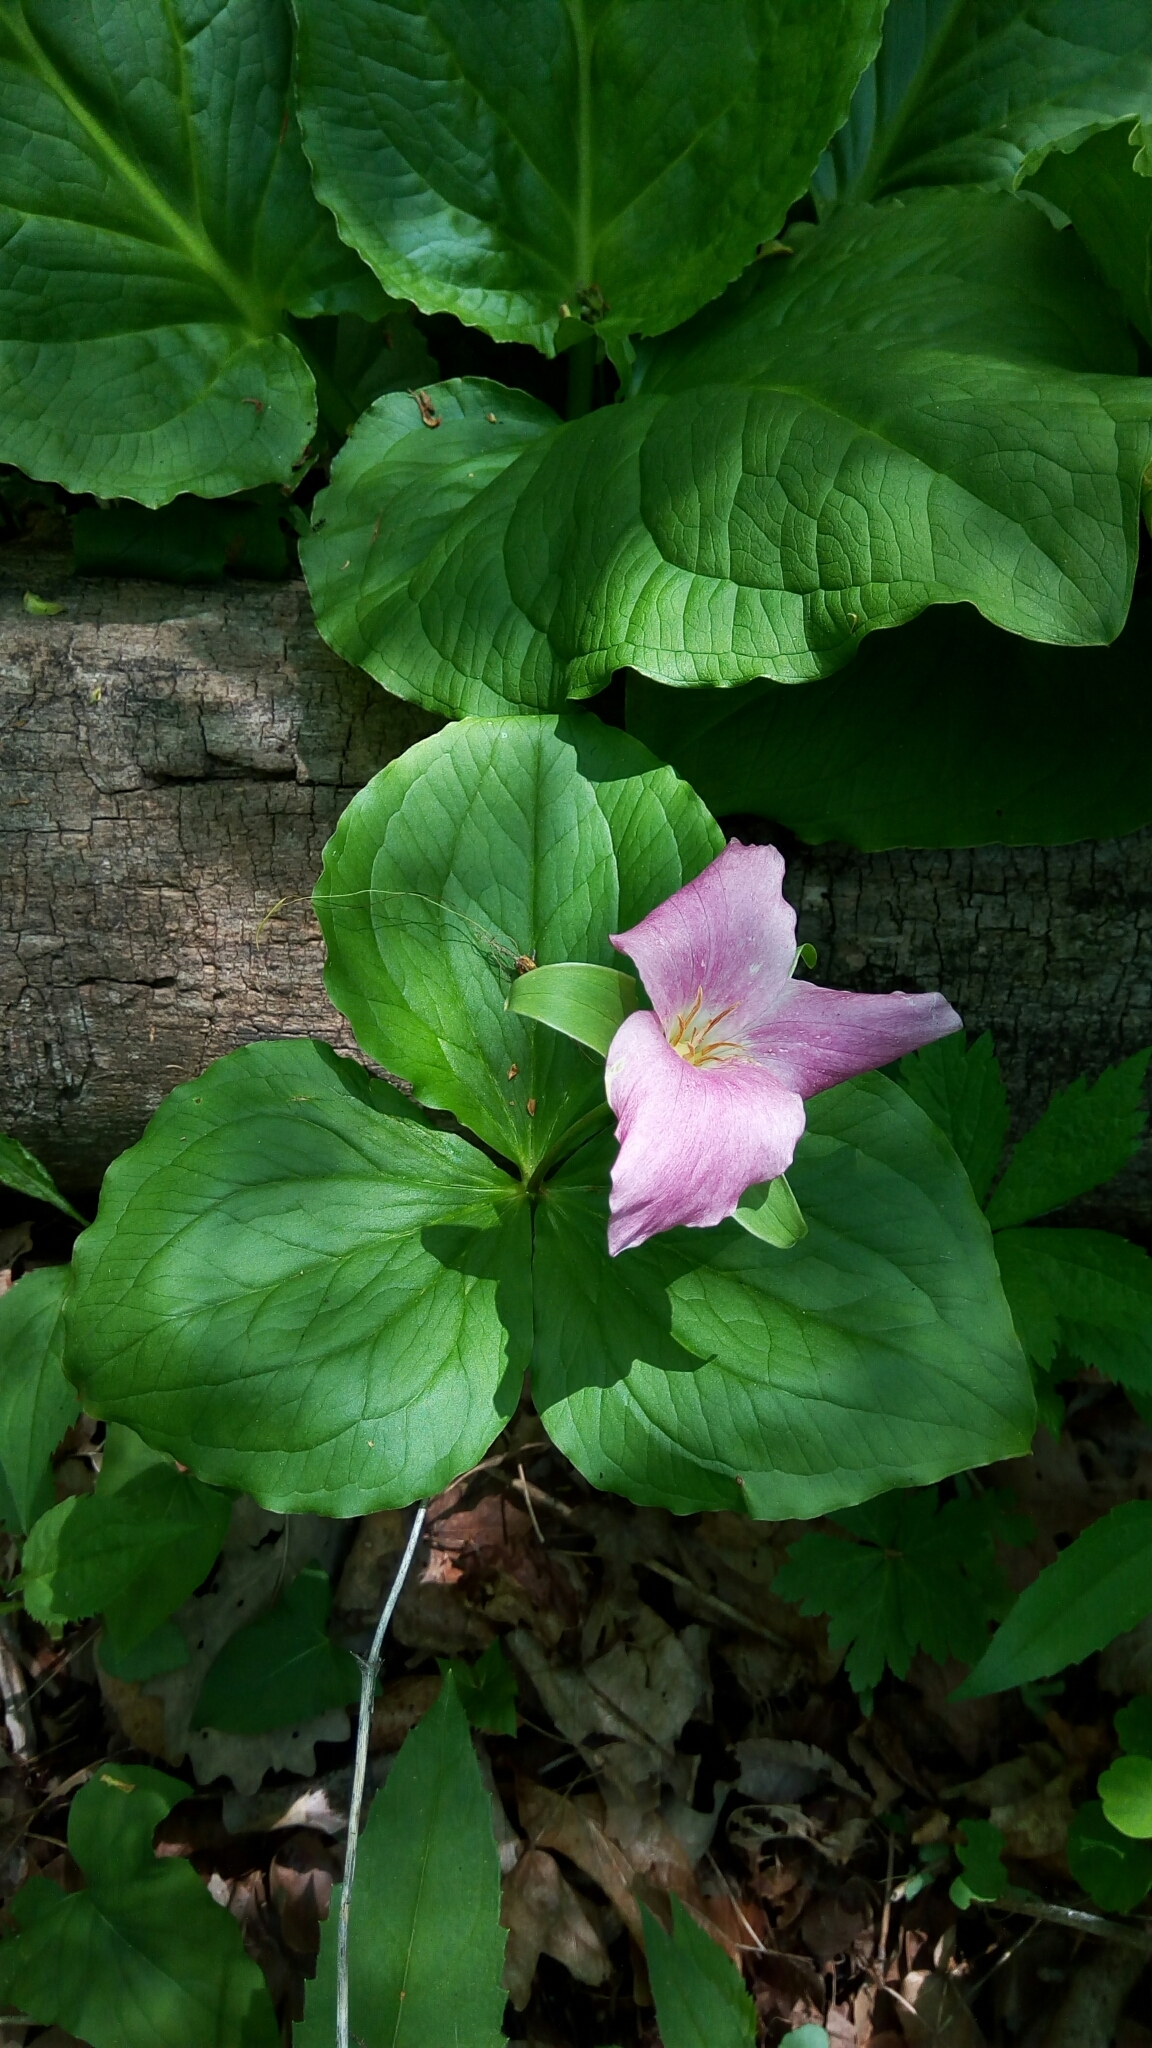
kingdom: Plantae
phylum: Tracheophyta
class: Liliopsida
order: Liliales
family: Melanthiaceae
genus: Trillium
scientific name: Trillium grandiflorum
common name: Great white trillium
